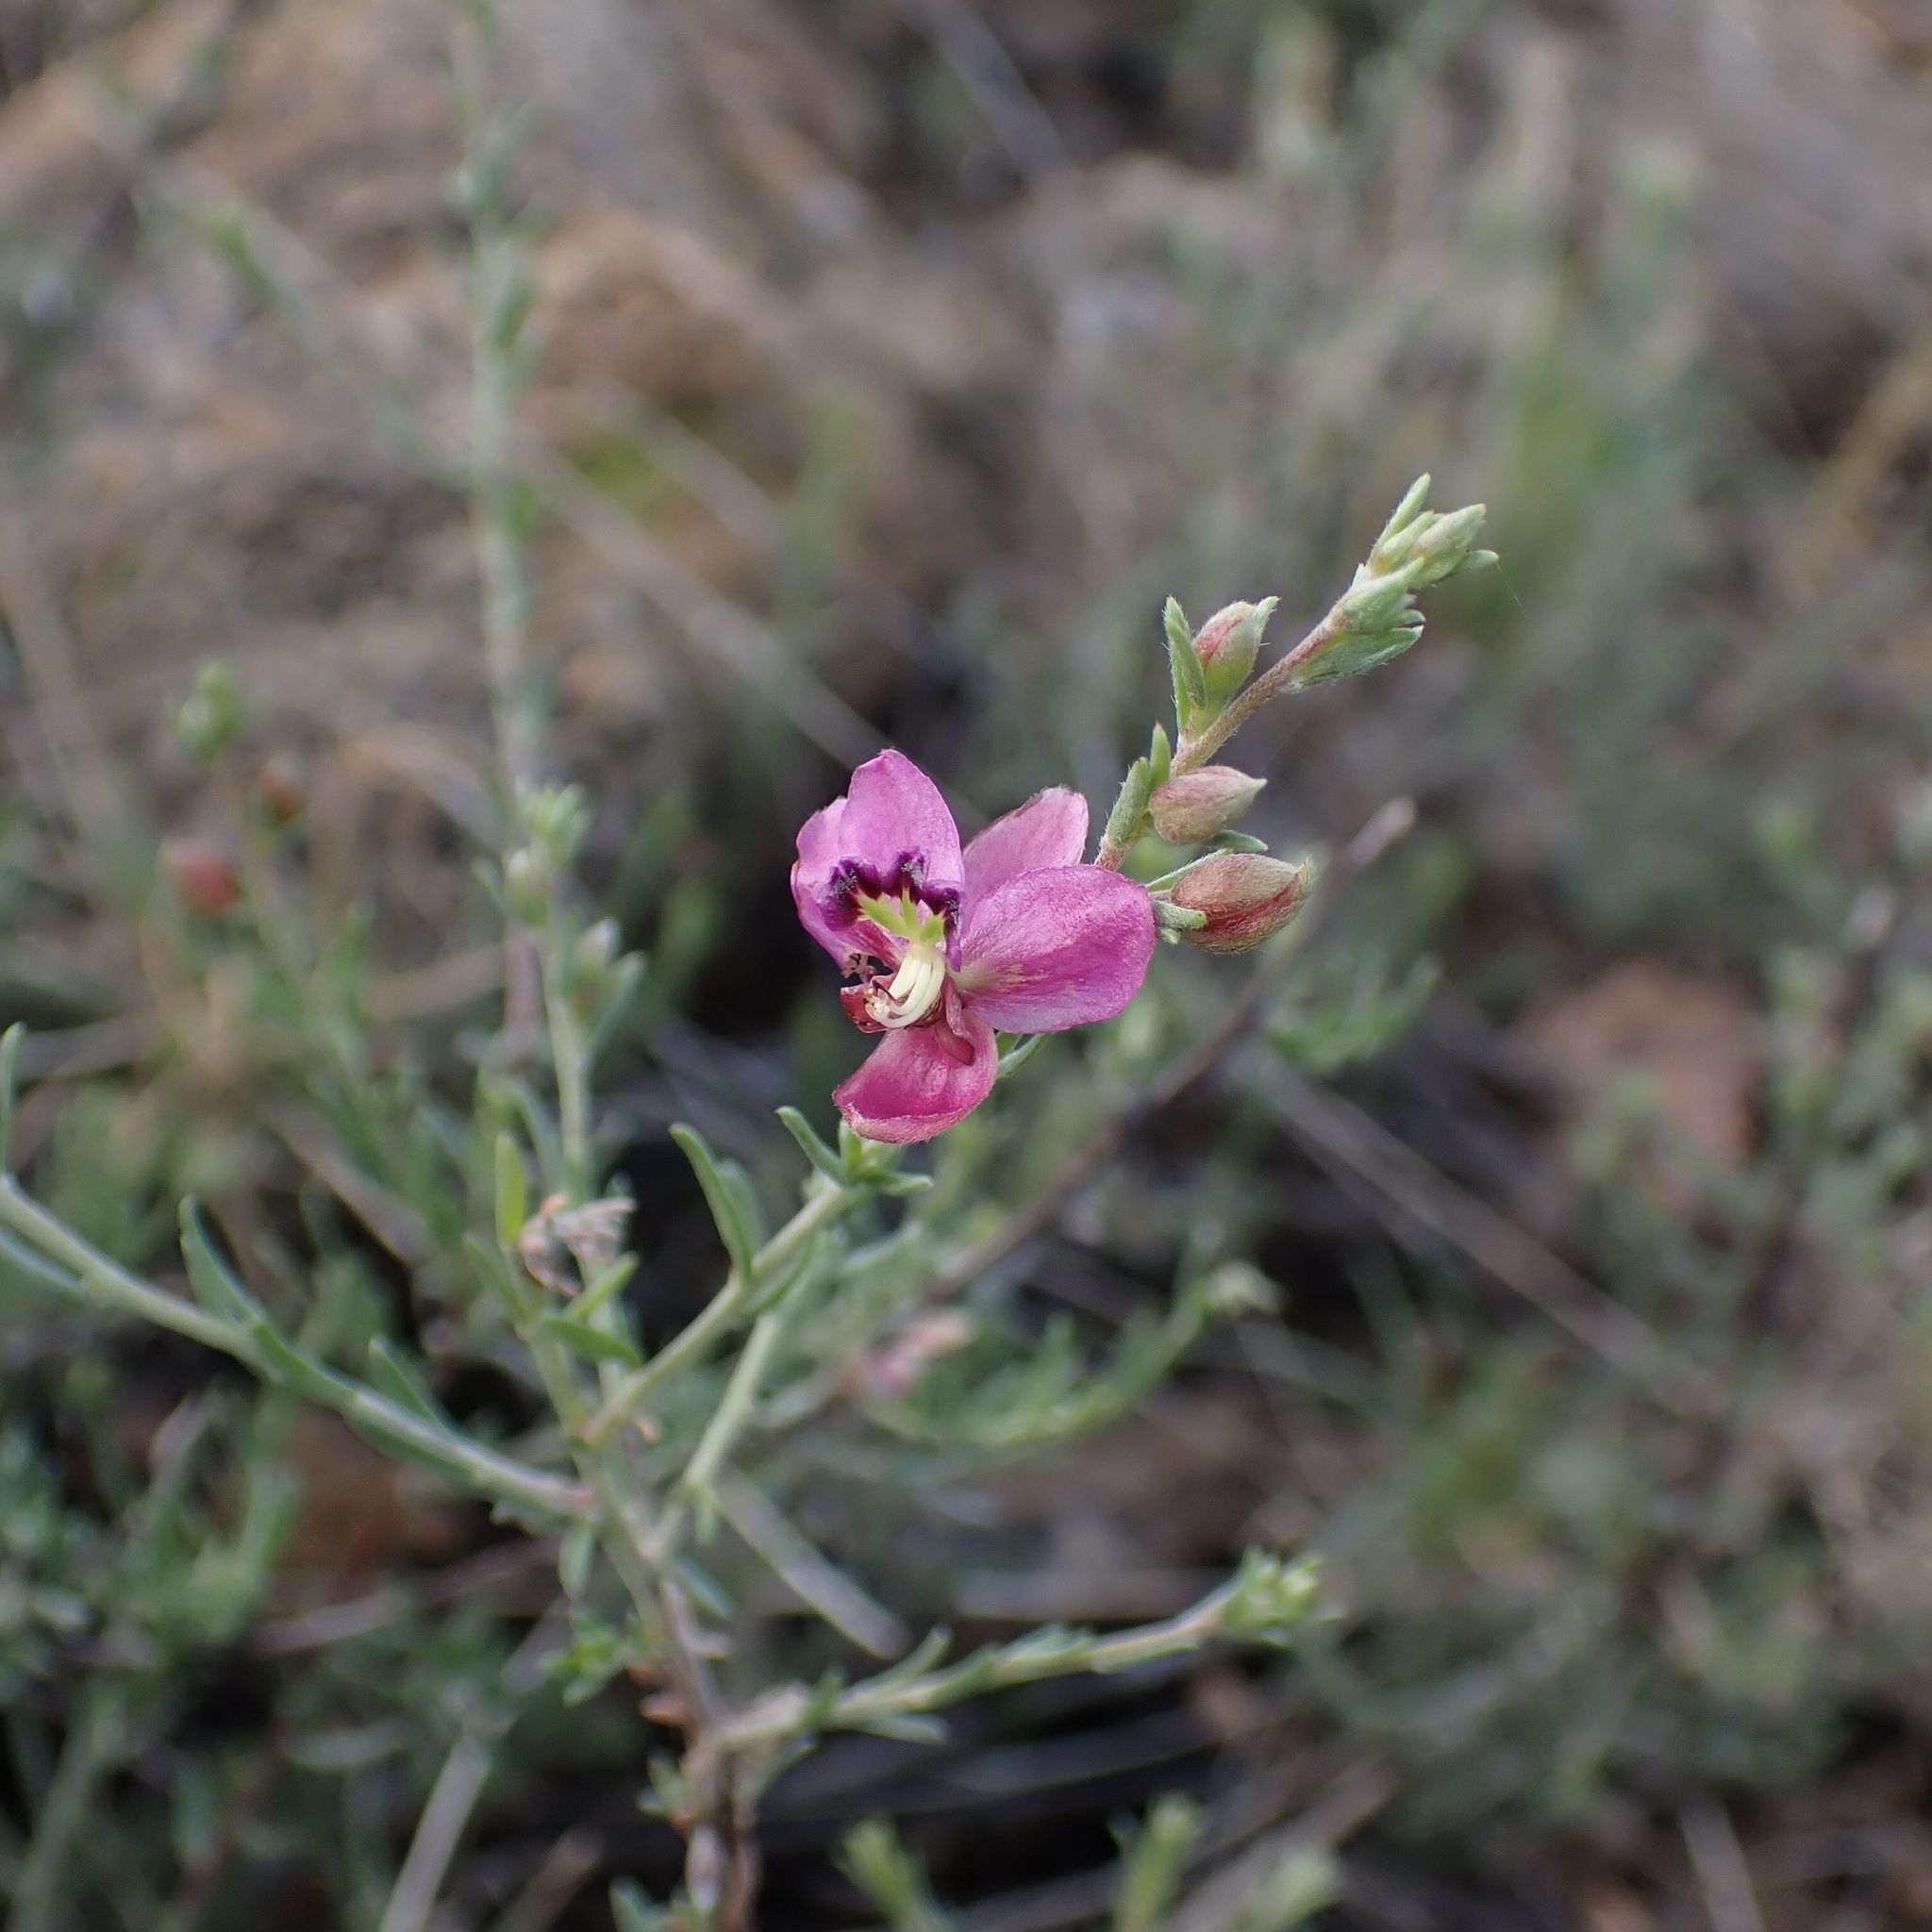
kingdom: Plantae
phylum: Tracheophyta
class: Magnoliopsida
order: Zygophyllales
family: Krameriaceae
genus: Krameria
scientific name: Krameria erecta
